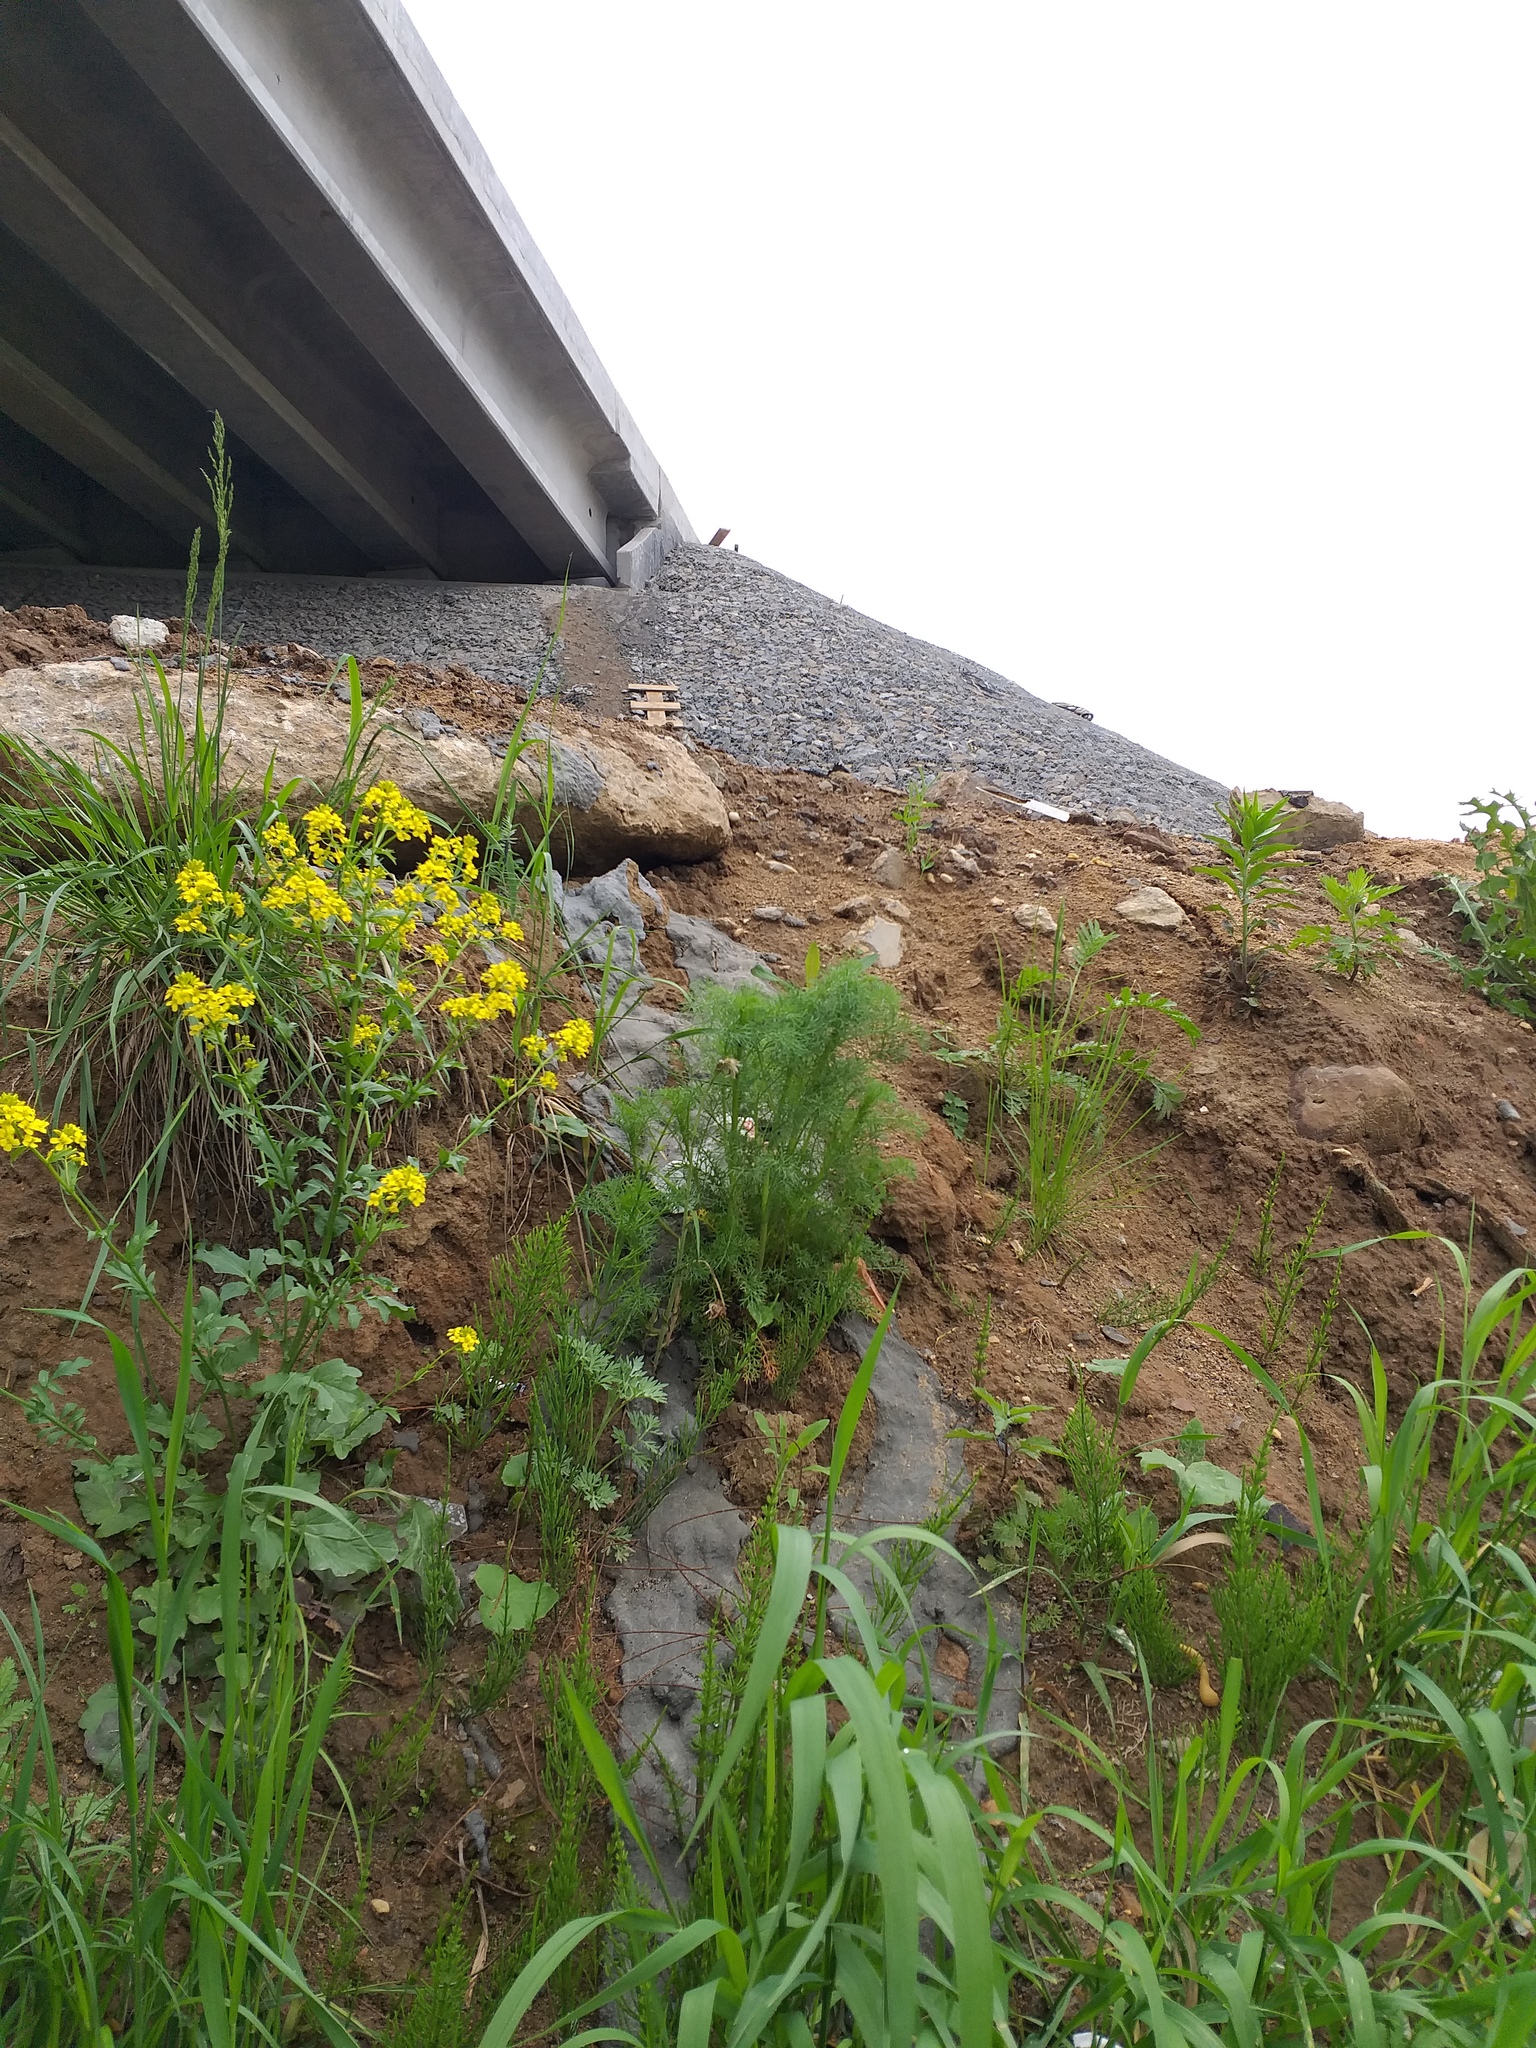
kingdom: Plantae
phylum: Tracheophyta
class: Magnoliopsida
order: Asterales
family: Asteraceae
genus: Tripleurospermum
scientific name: Tripleurospermum inodorum
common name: Scentless mayweed
